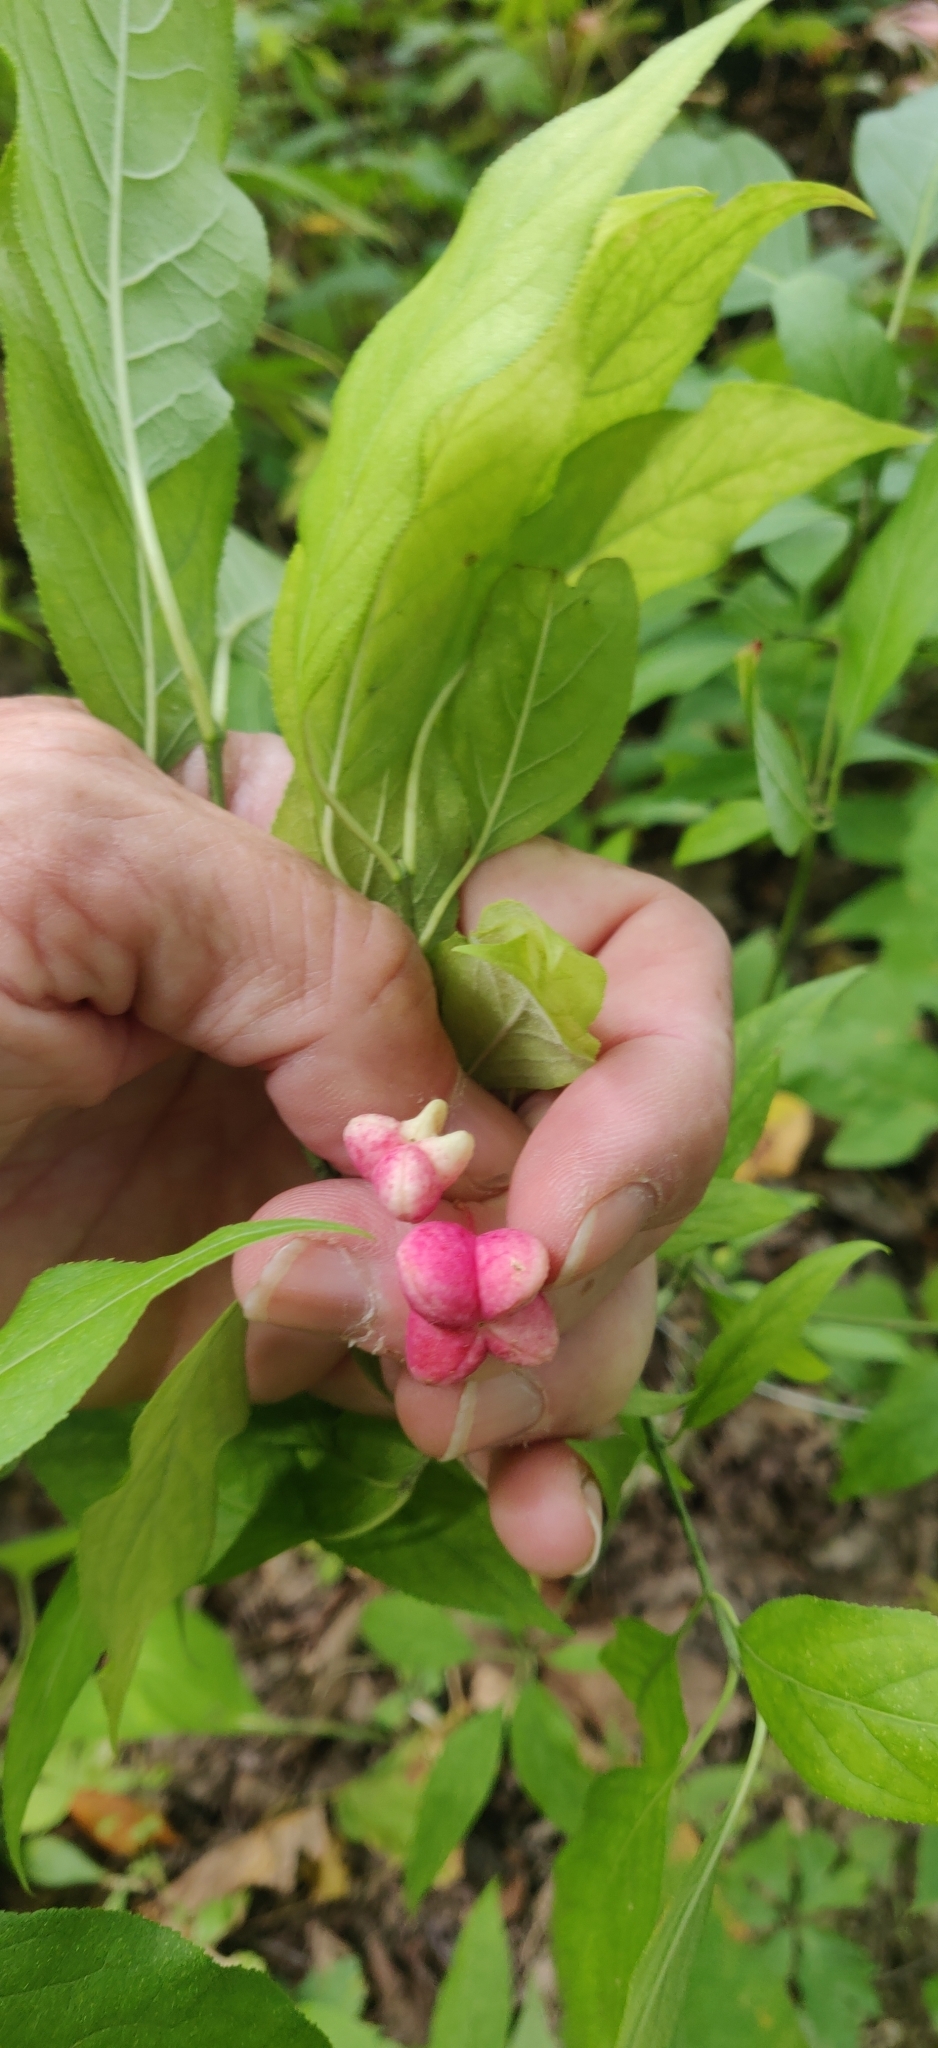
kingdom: Plantae
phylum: Tracheophyta
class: Magnoliopsida
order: Celastrales
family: Celastraceae
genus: Euonymus
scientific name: Euonymus atropurpureus
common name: Eastern wahoo
